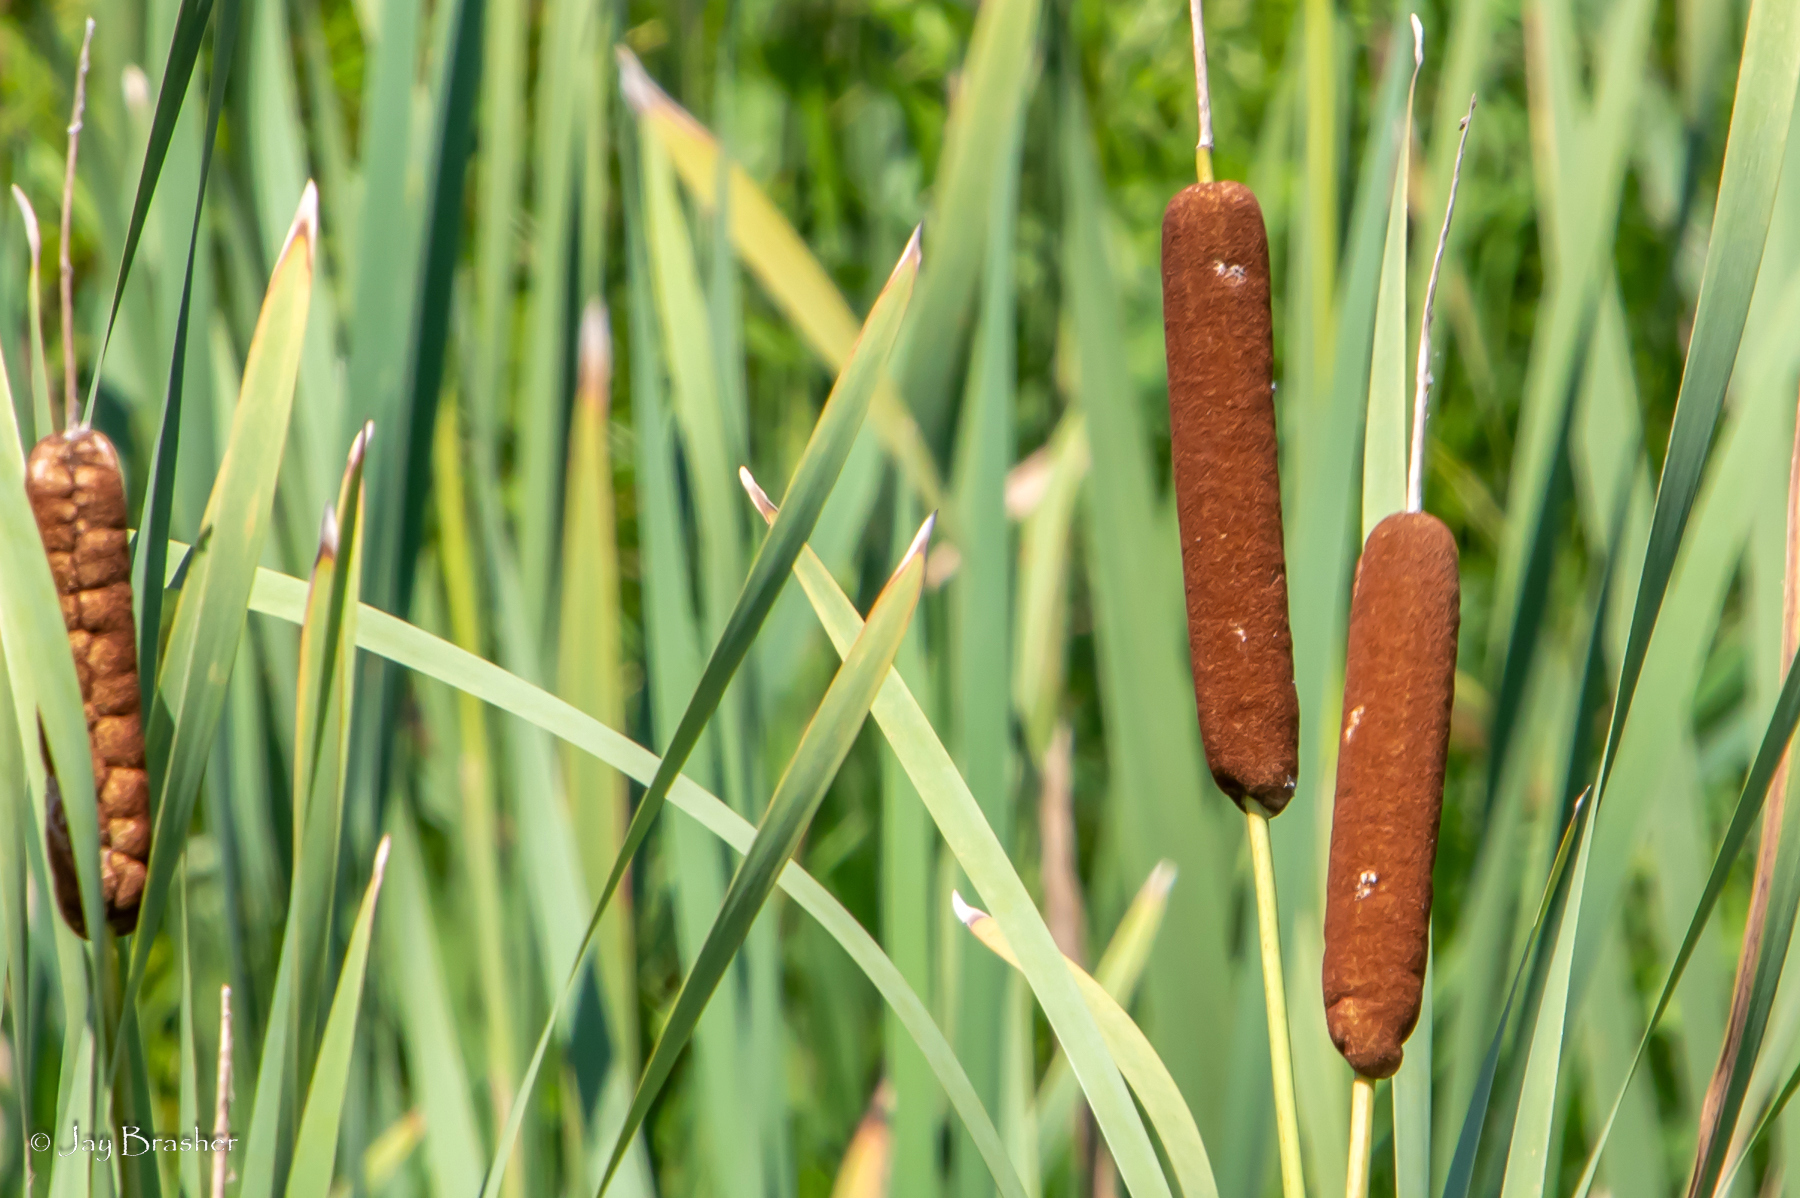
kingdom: Plantae
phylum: Tracheophyta
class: Liliopsida
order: Poales
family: Typhaceae
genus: Typha
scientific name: Typha latifolia
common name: Broadleaf cattail
